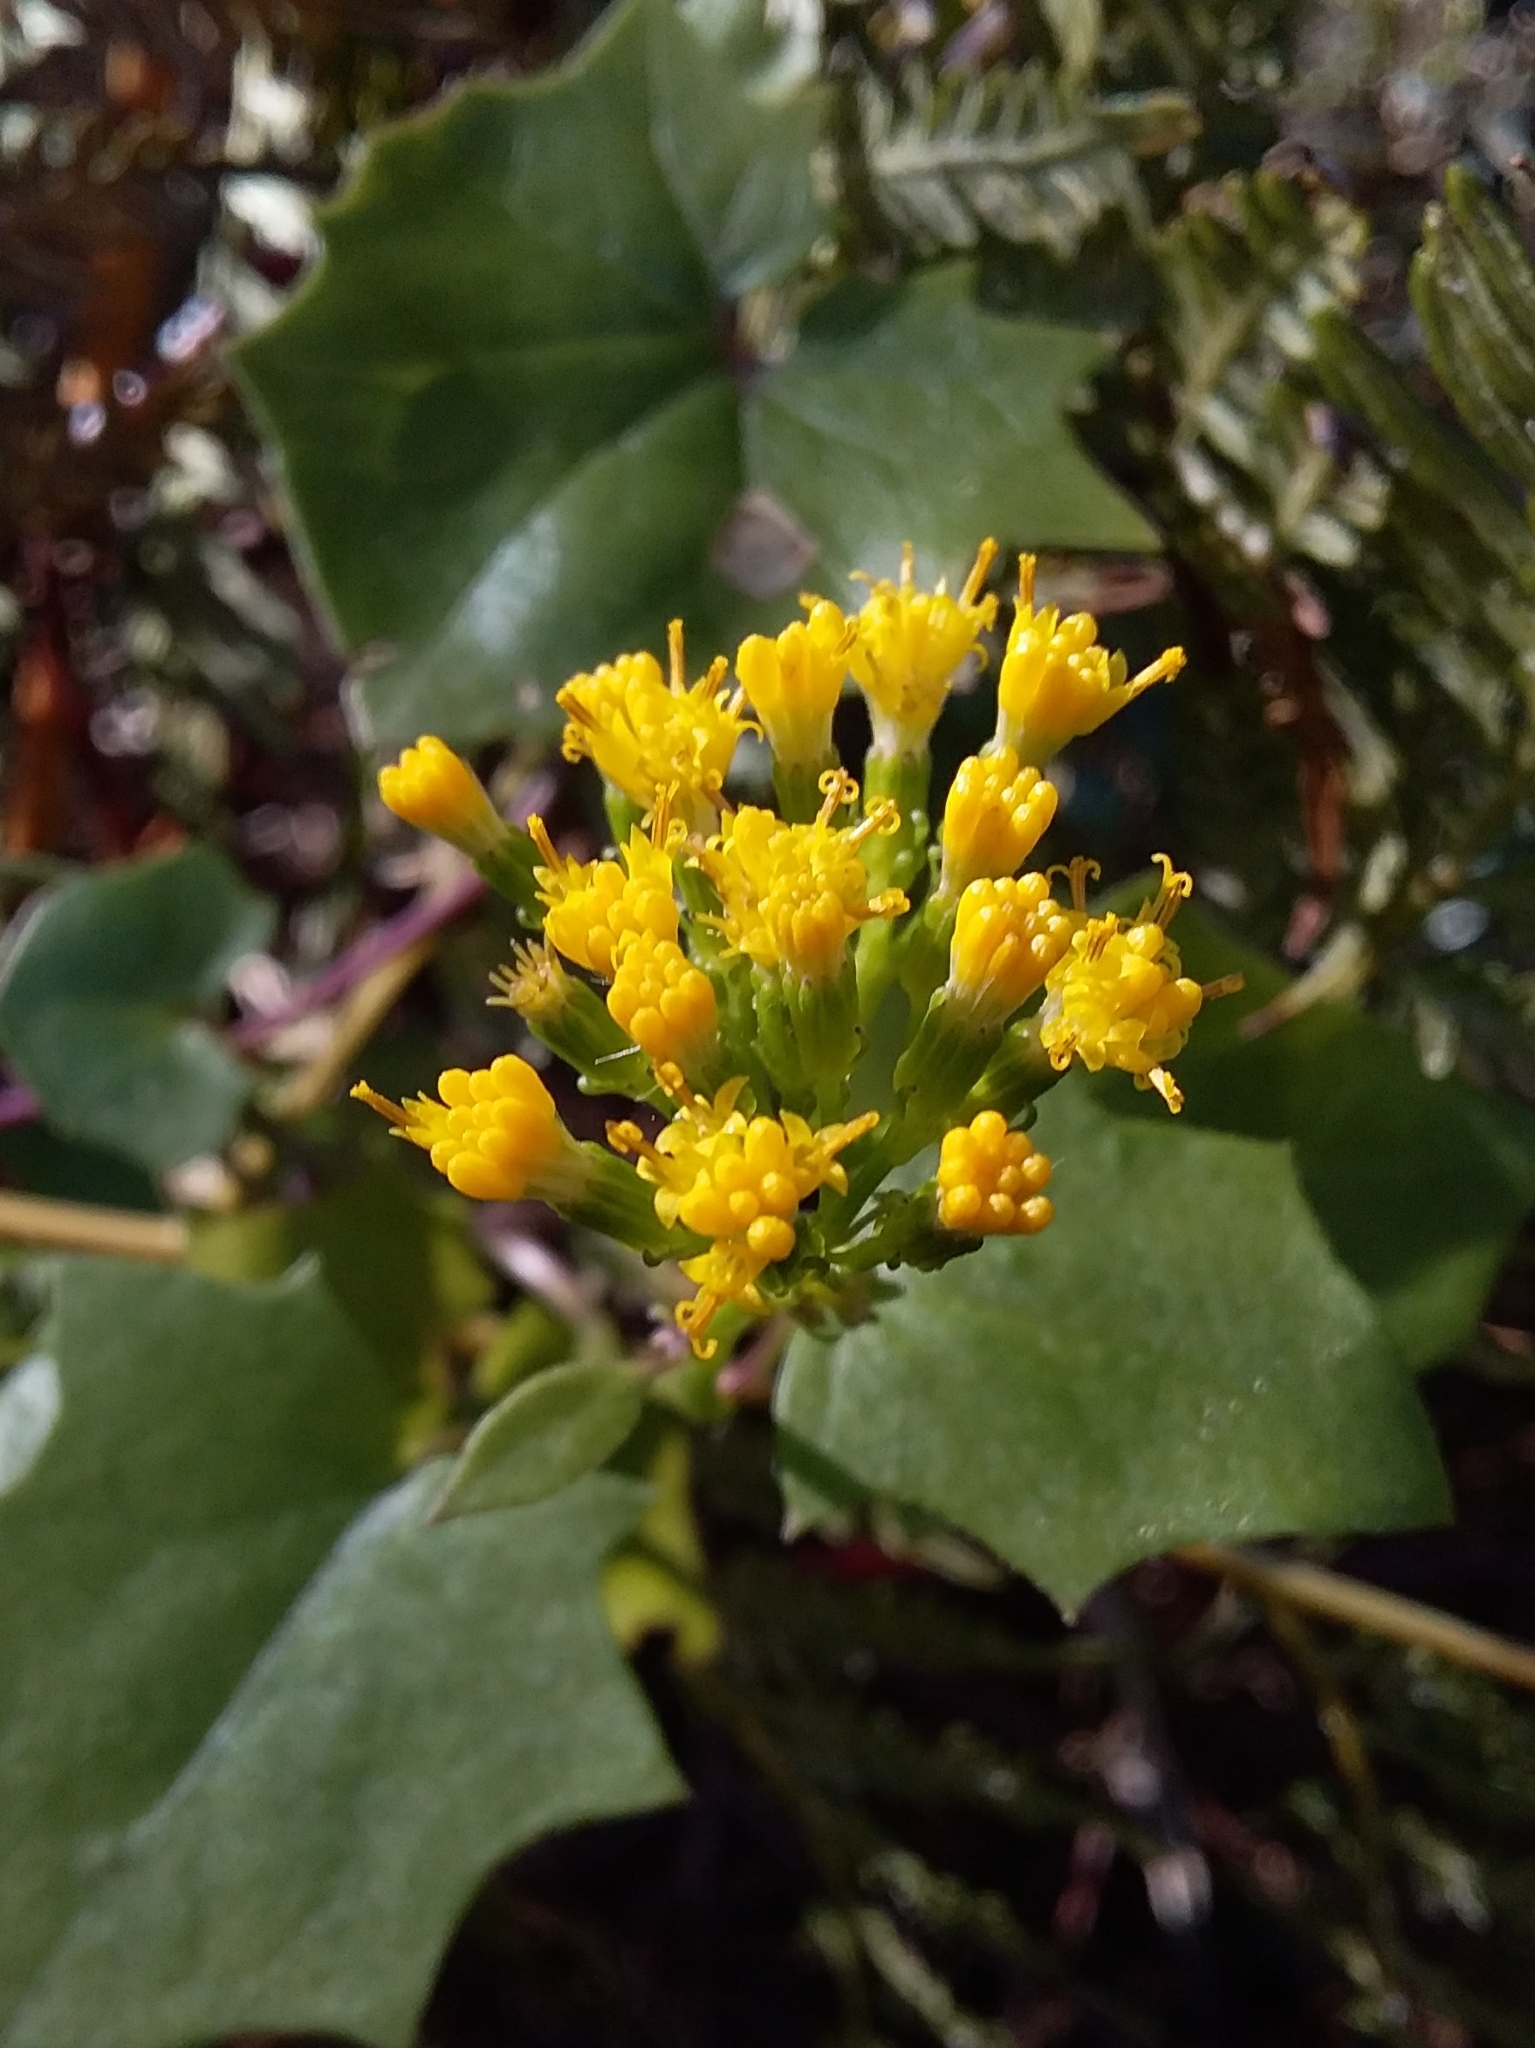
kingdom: Plantae
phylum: Tracheophyta
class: Magnoliopsida
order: Asterales
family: Asteraceae
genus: Delairea
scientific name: Delairea odorata
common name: Cape-ivy
